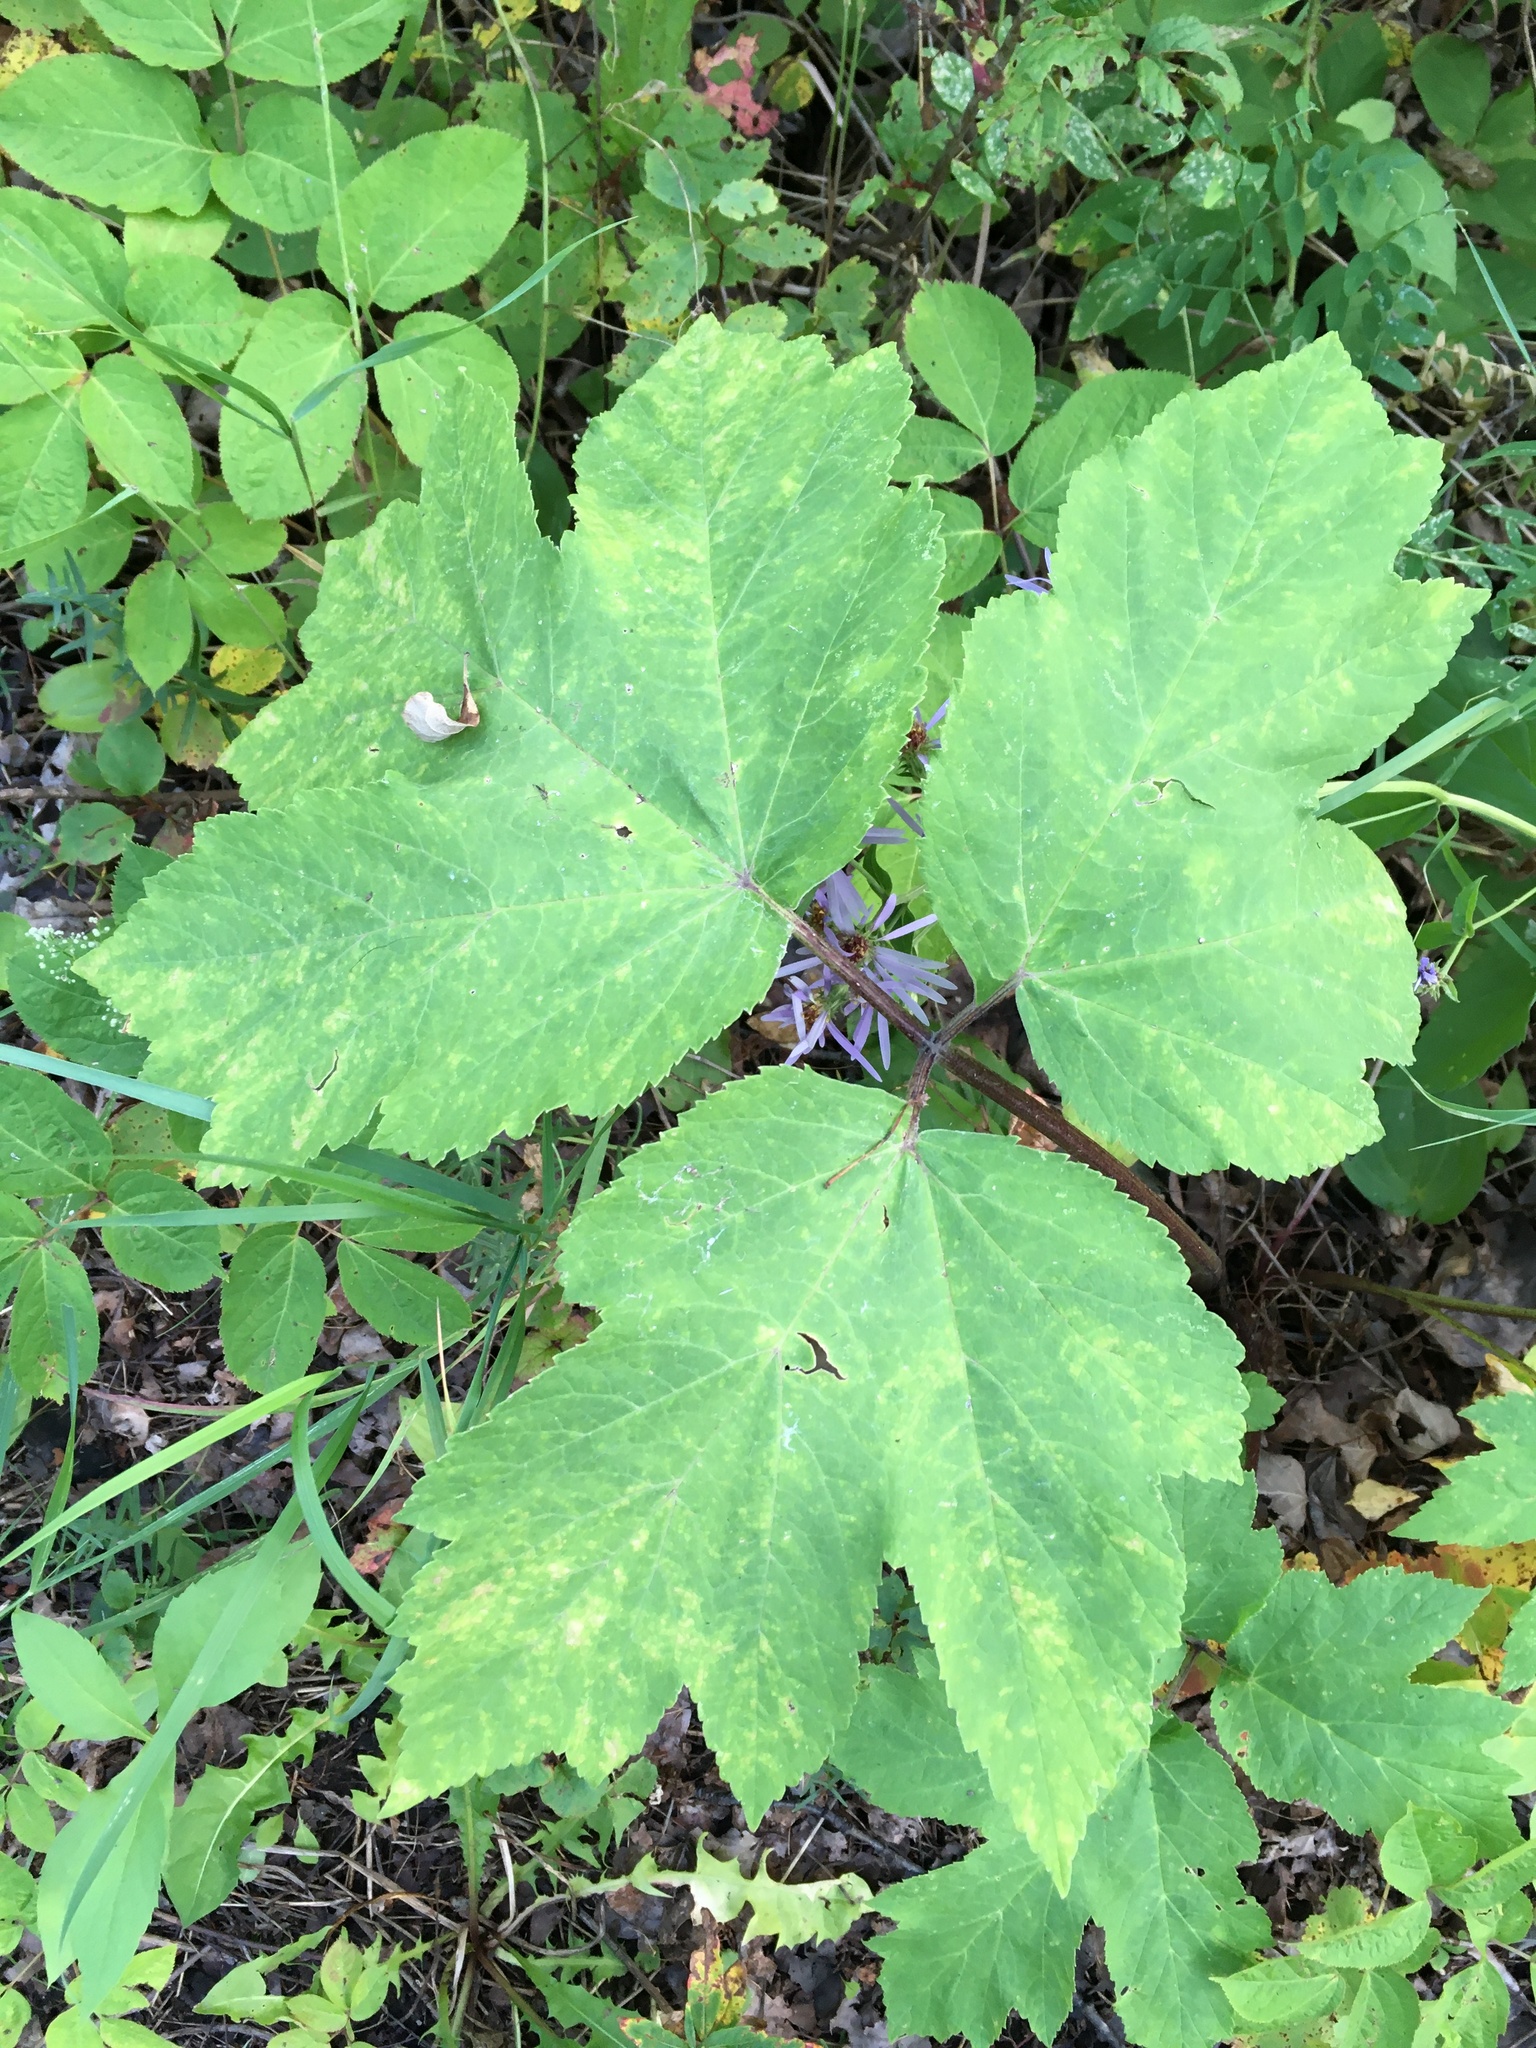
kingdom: Plantae
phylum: Tracheophyta
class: Magnoliopsida
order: Apiales
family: Apiaceae
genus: Heracleum
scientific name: Heracleum maximum
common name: American cow parsnip
